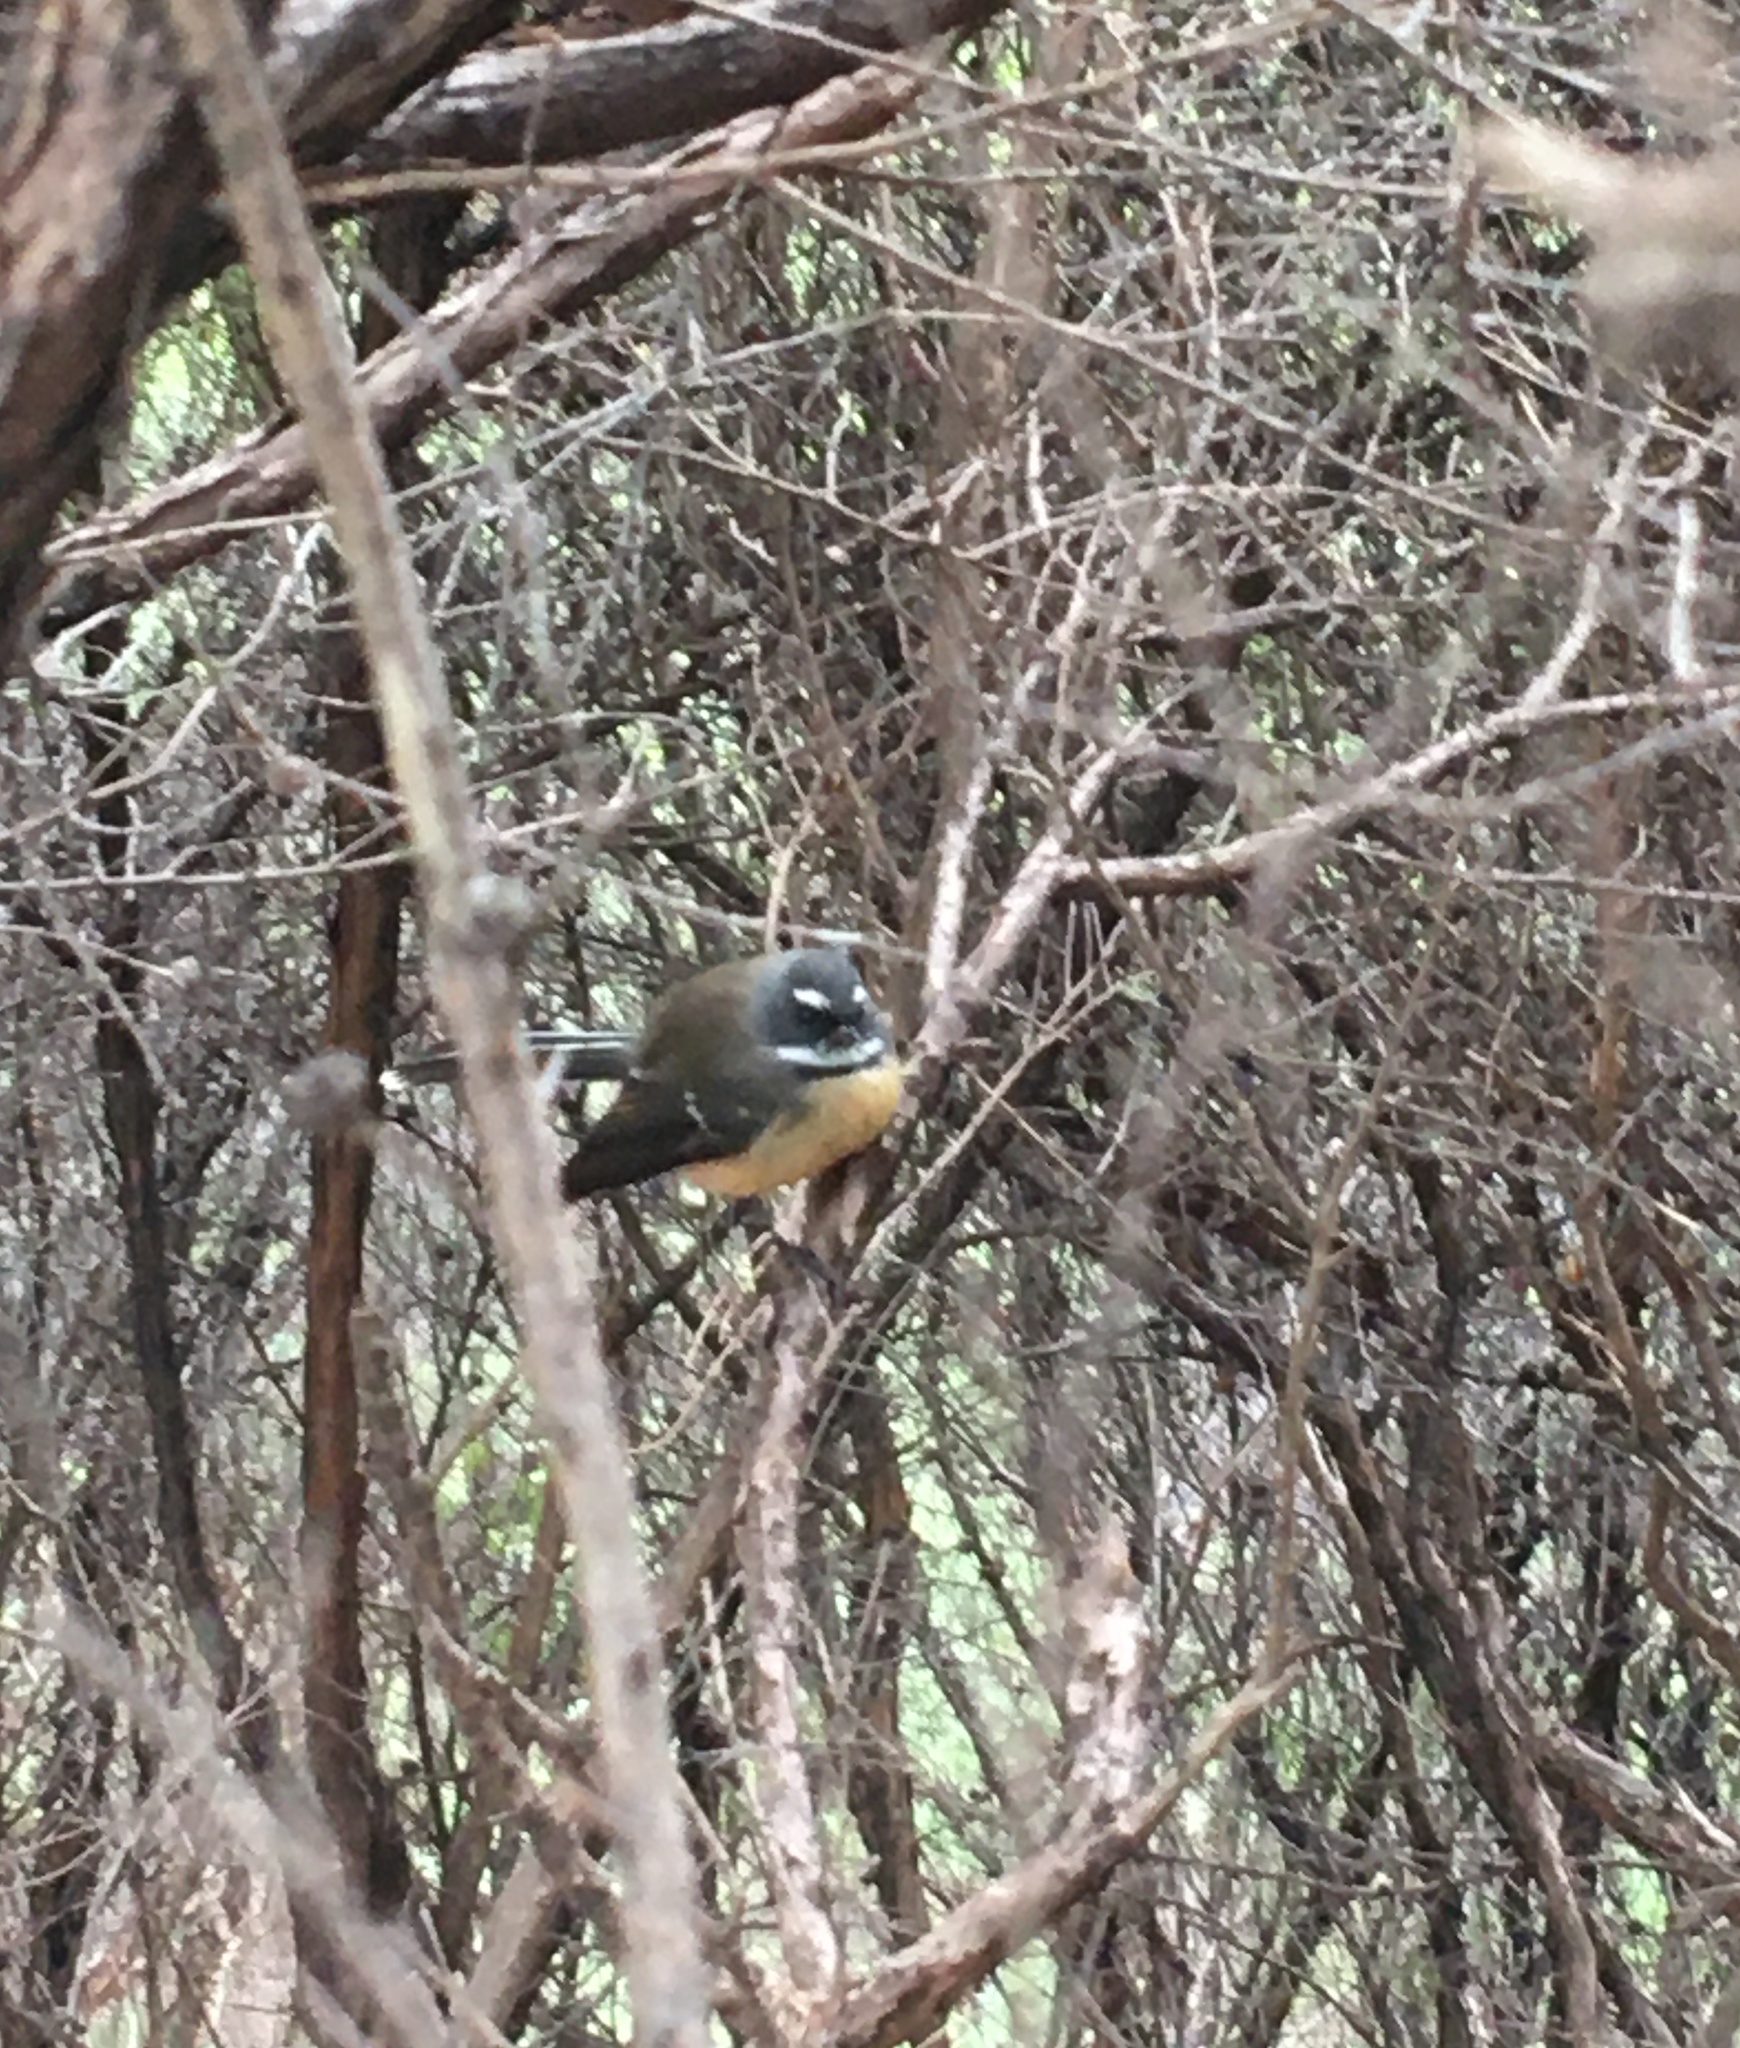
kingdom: Animalia
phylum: Chordata
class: Aves
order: Passeriformes
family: Rhipiduridae
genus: Rhipidura
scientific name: Rhipidura fuliginosa
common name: New zealand fantail
